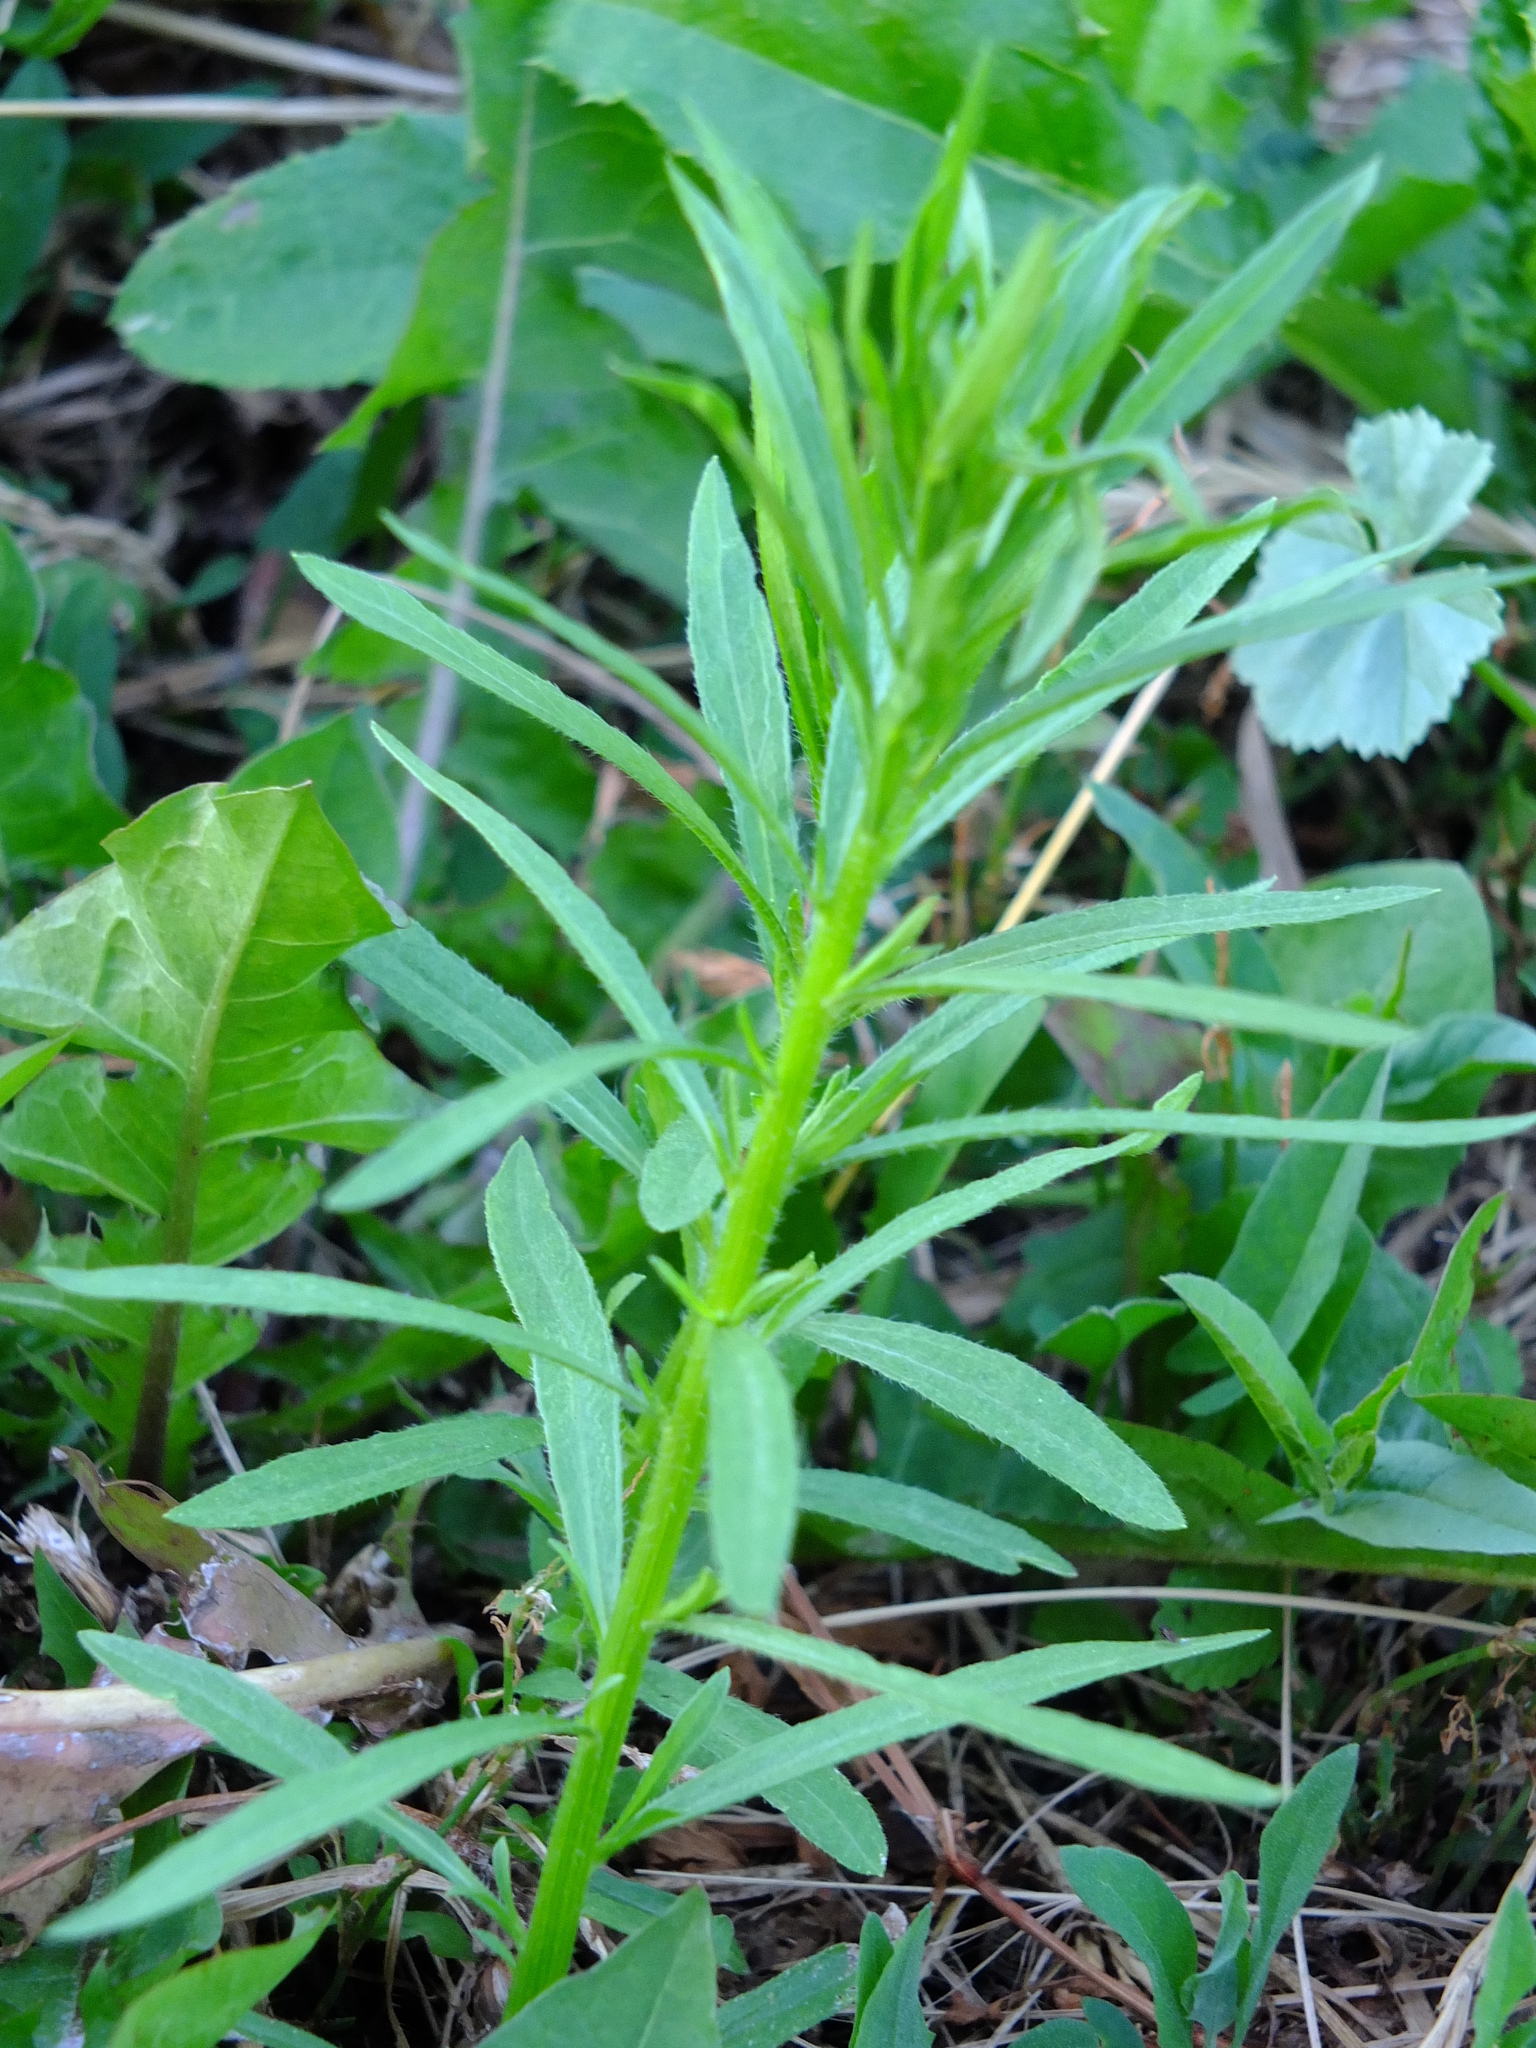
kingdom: Plantae
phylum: Tracheophyta
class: Magnoliopsida
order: Asterales
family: Asteraceae
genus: Erigeron
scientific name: Erigeron canadensis
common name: Canadian fleabane
